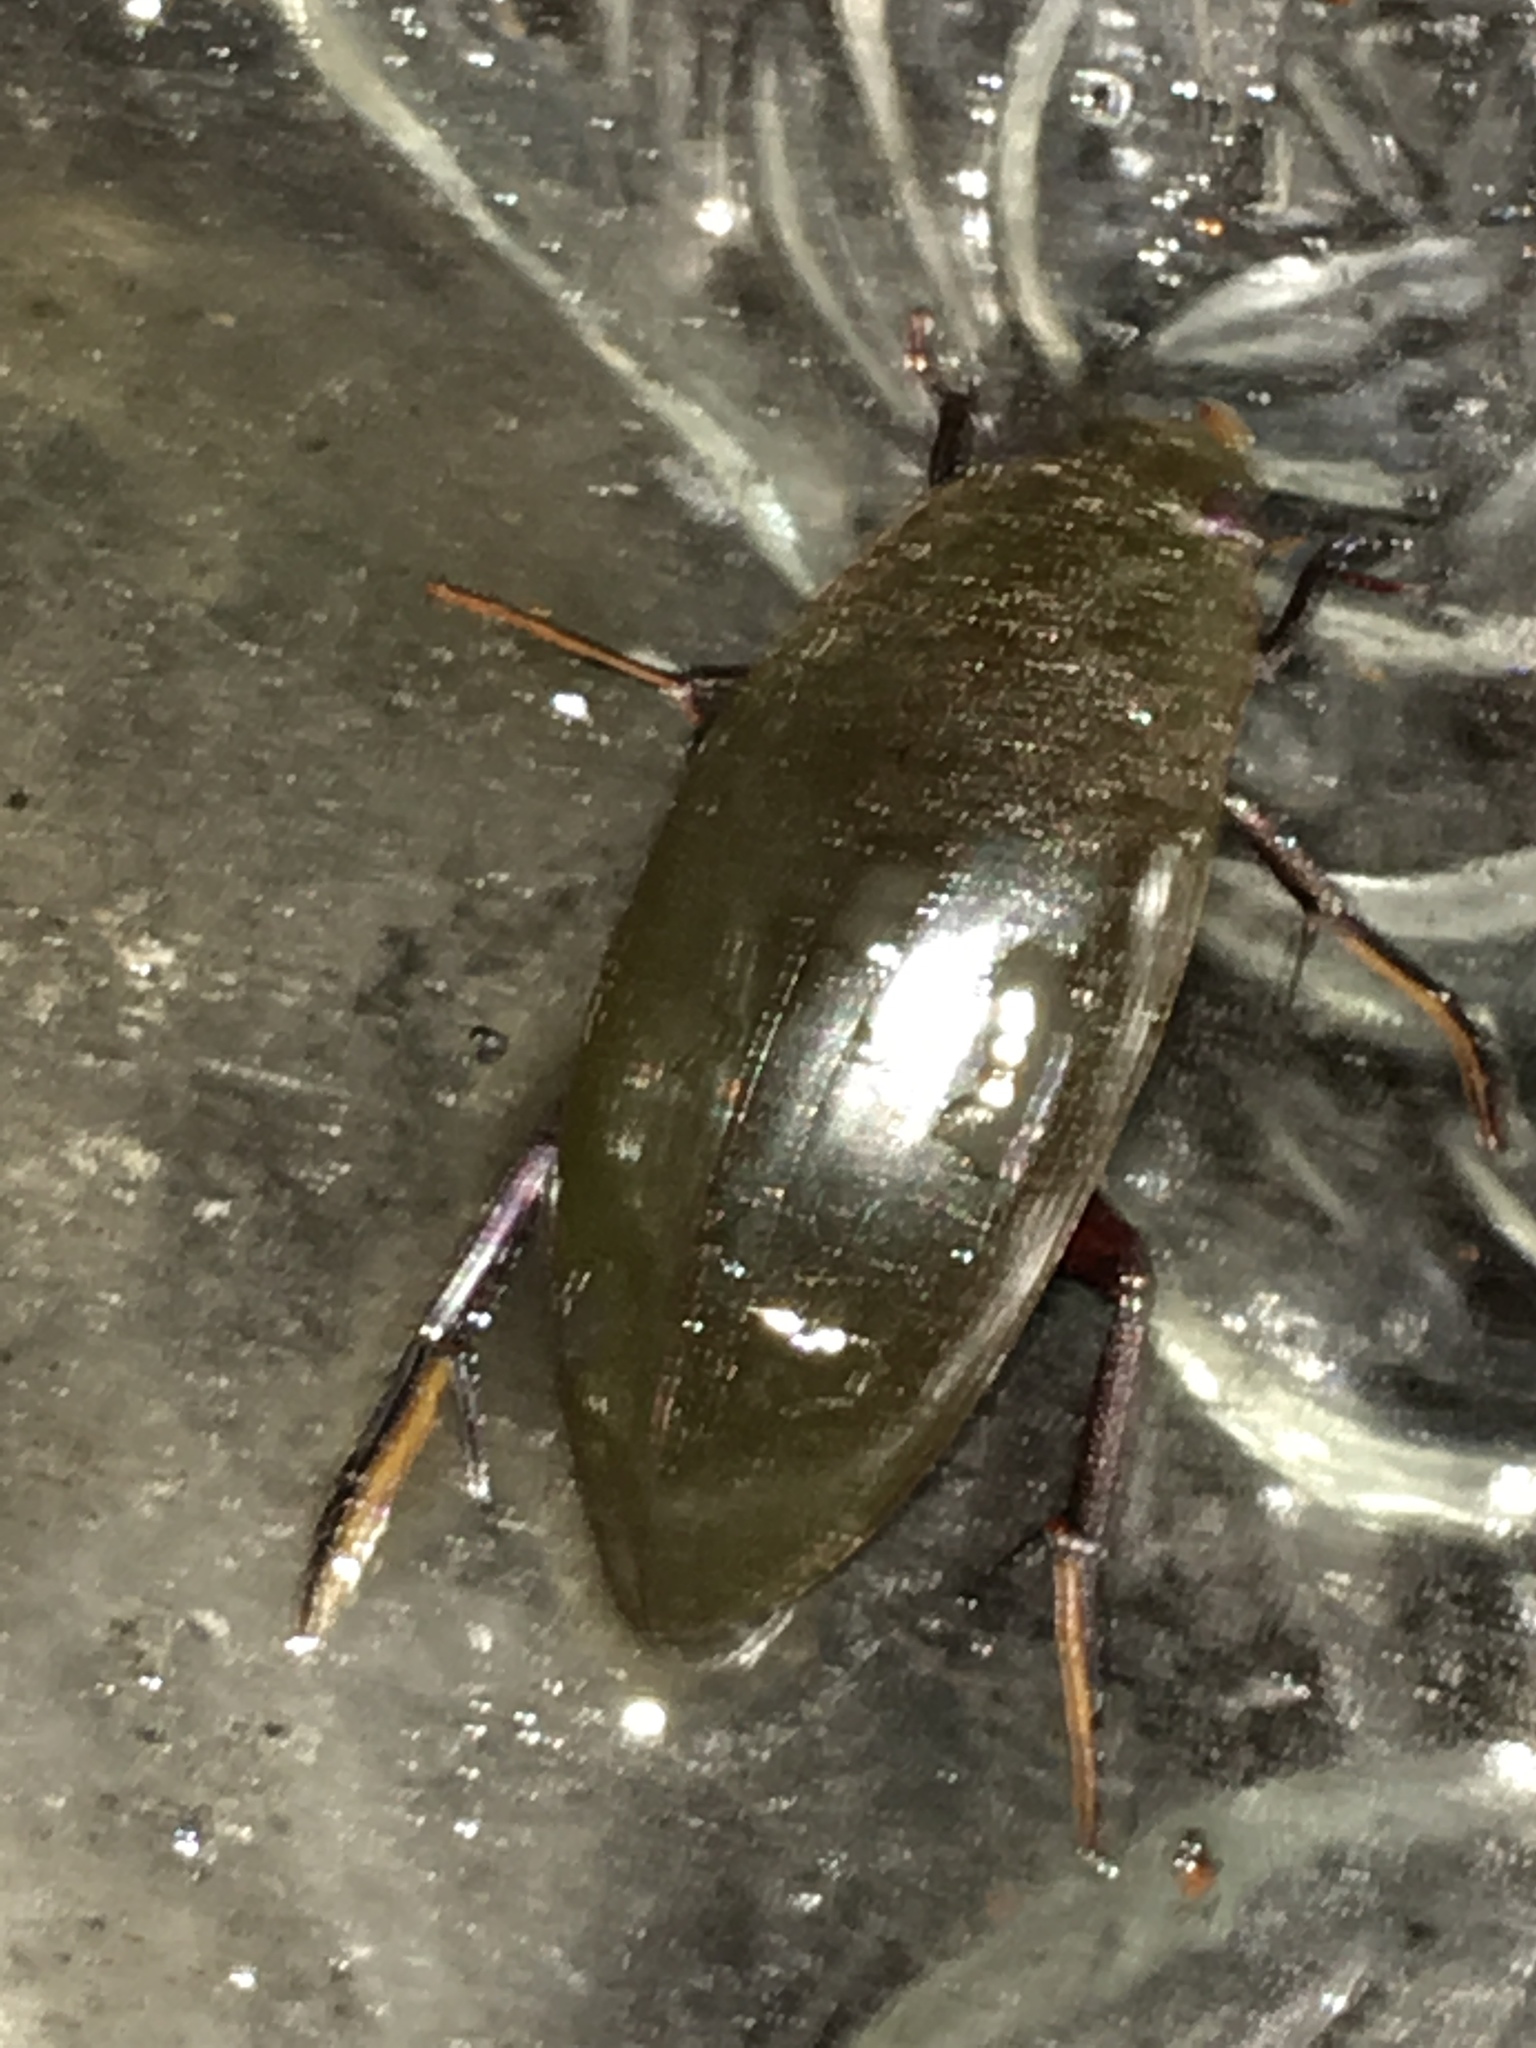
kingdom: Animalia
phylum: Arthropoda
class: Insecta
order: Coleoptera
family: Hydrophilidae
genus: Hydrophilus
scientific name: Hydrophilus triangularis
